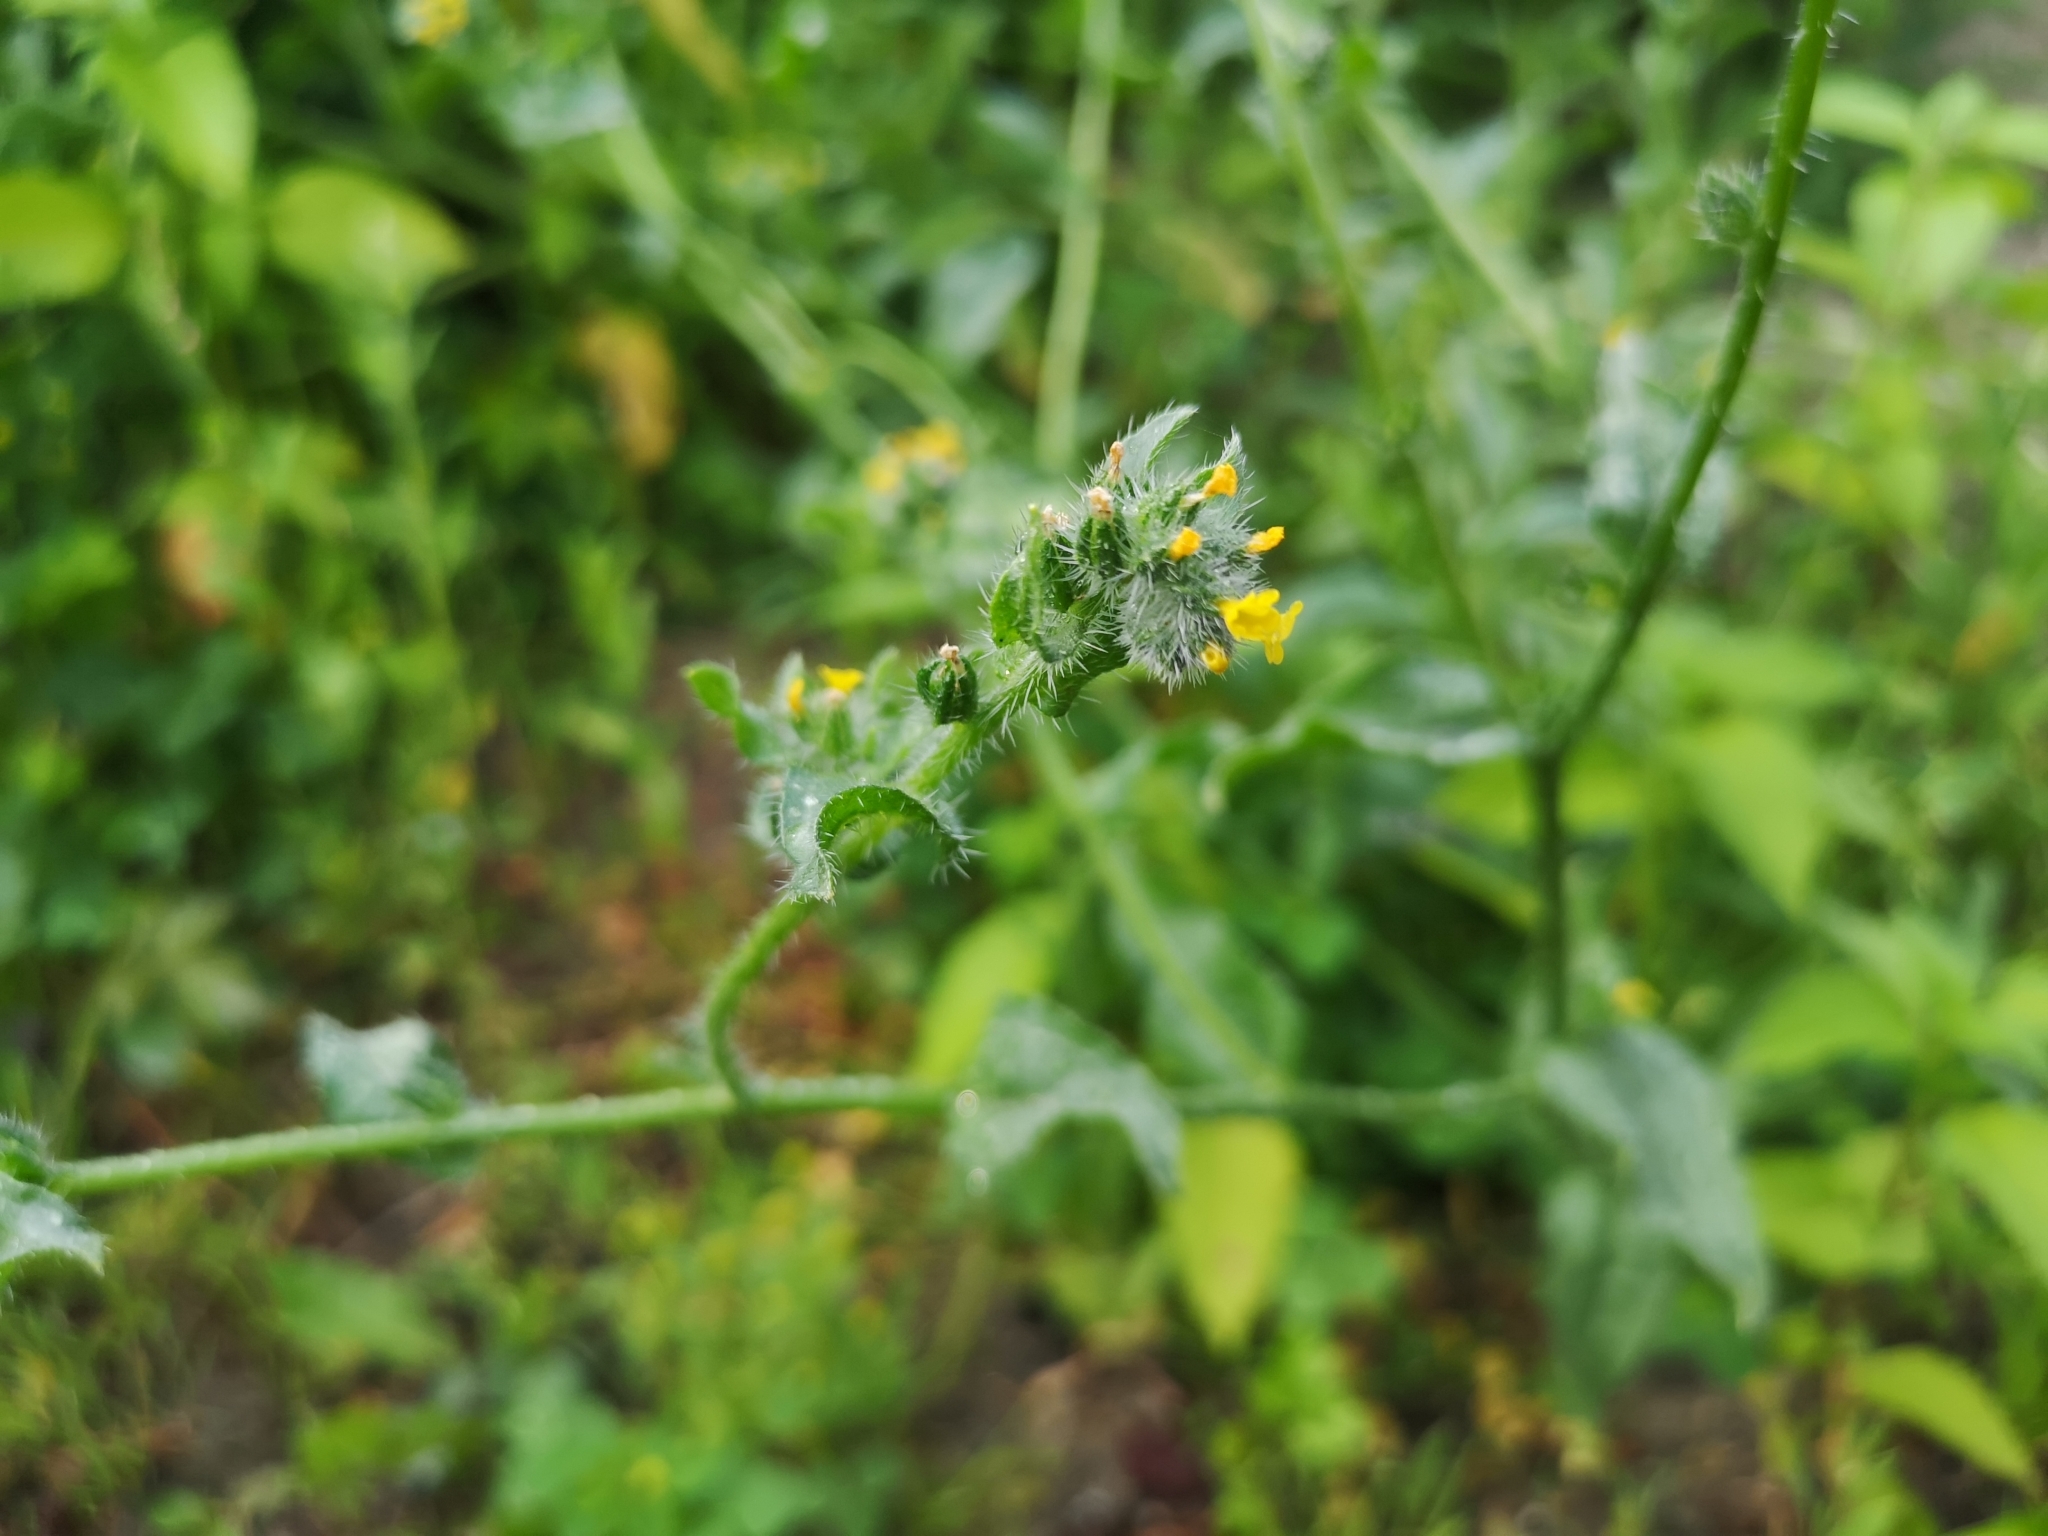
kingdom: Plantae
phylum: Tracheophyta
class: Magnoliopsida
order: Boraginales
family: Boraginaceae
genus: Amsinckia
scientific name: Amsinckia menziesii
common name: Menzies' fiddleneck
